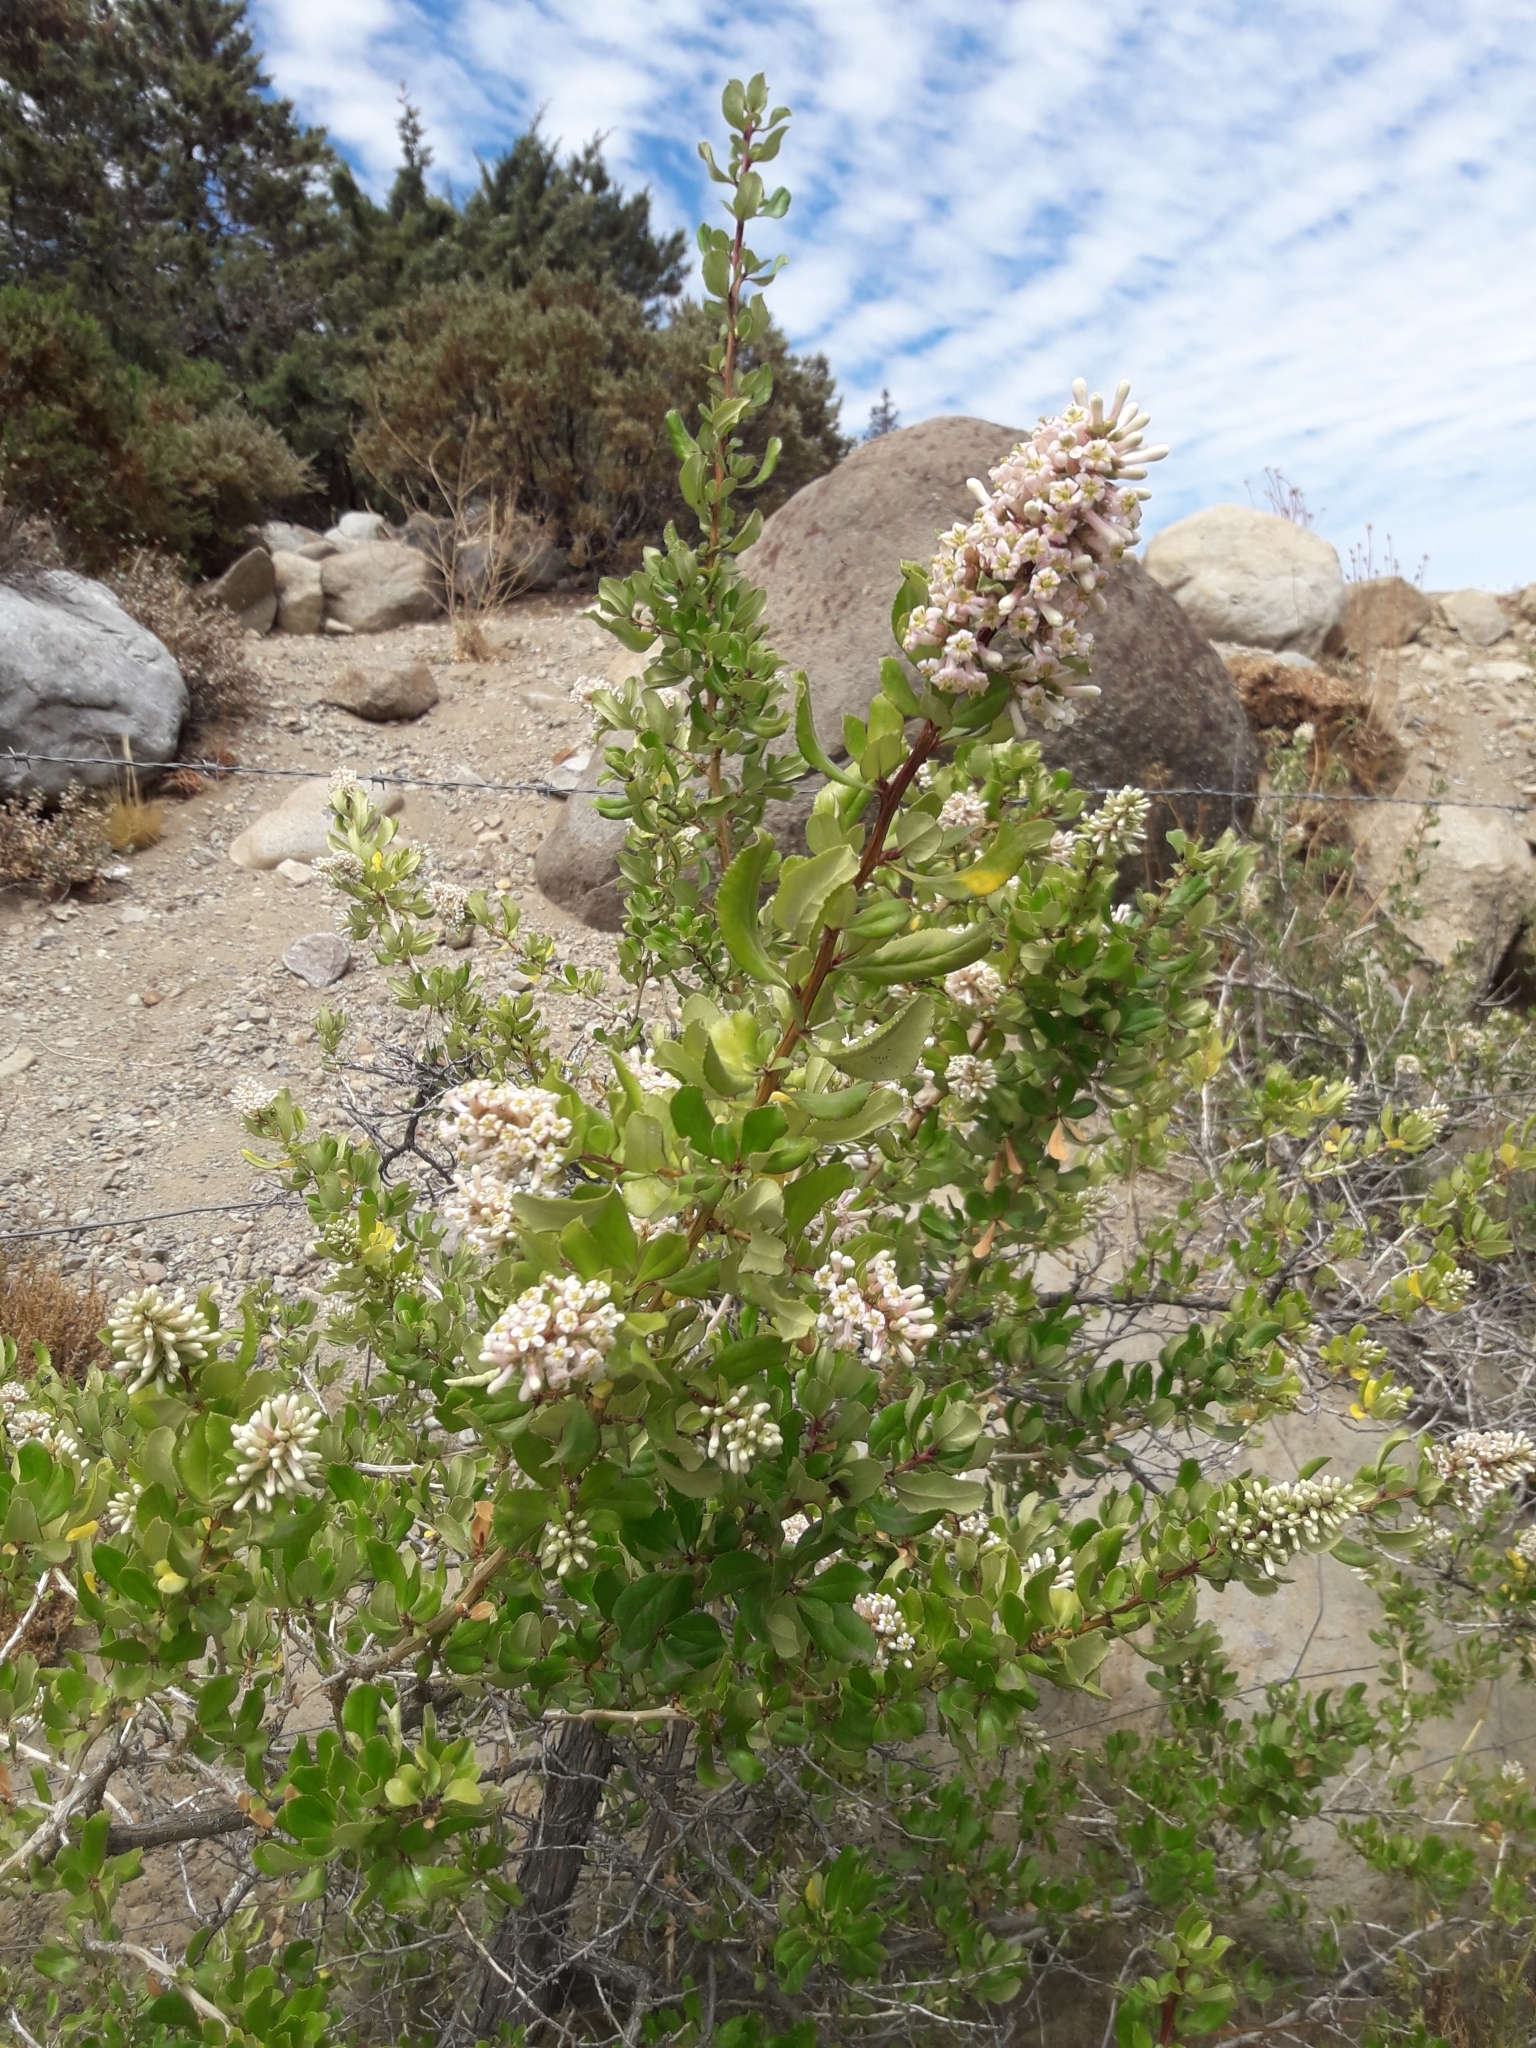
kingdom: Plantae
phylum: Tracheophyta
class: Magnoliopsida
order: Escalloniales
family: Escalloniaceae
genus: Escallonia
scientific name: Escallonia myrtoidea
